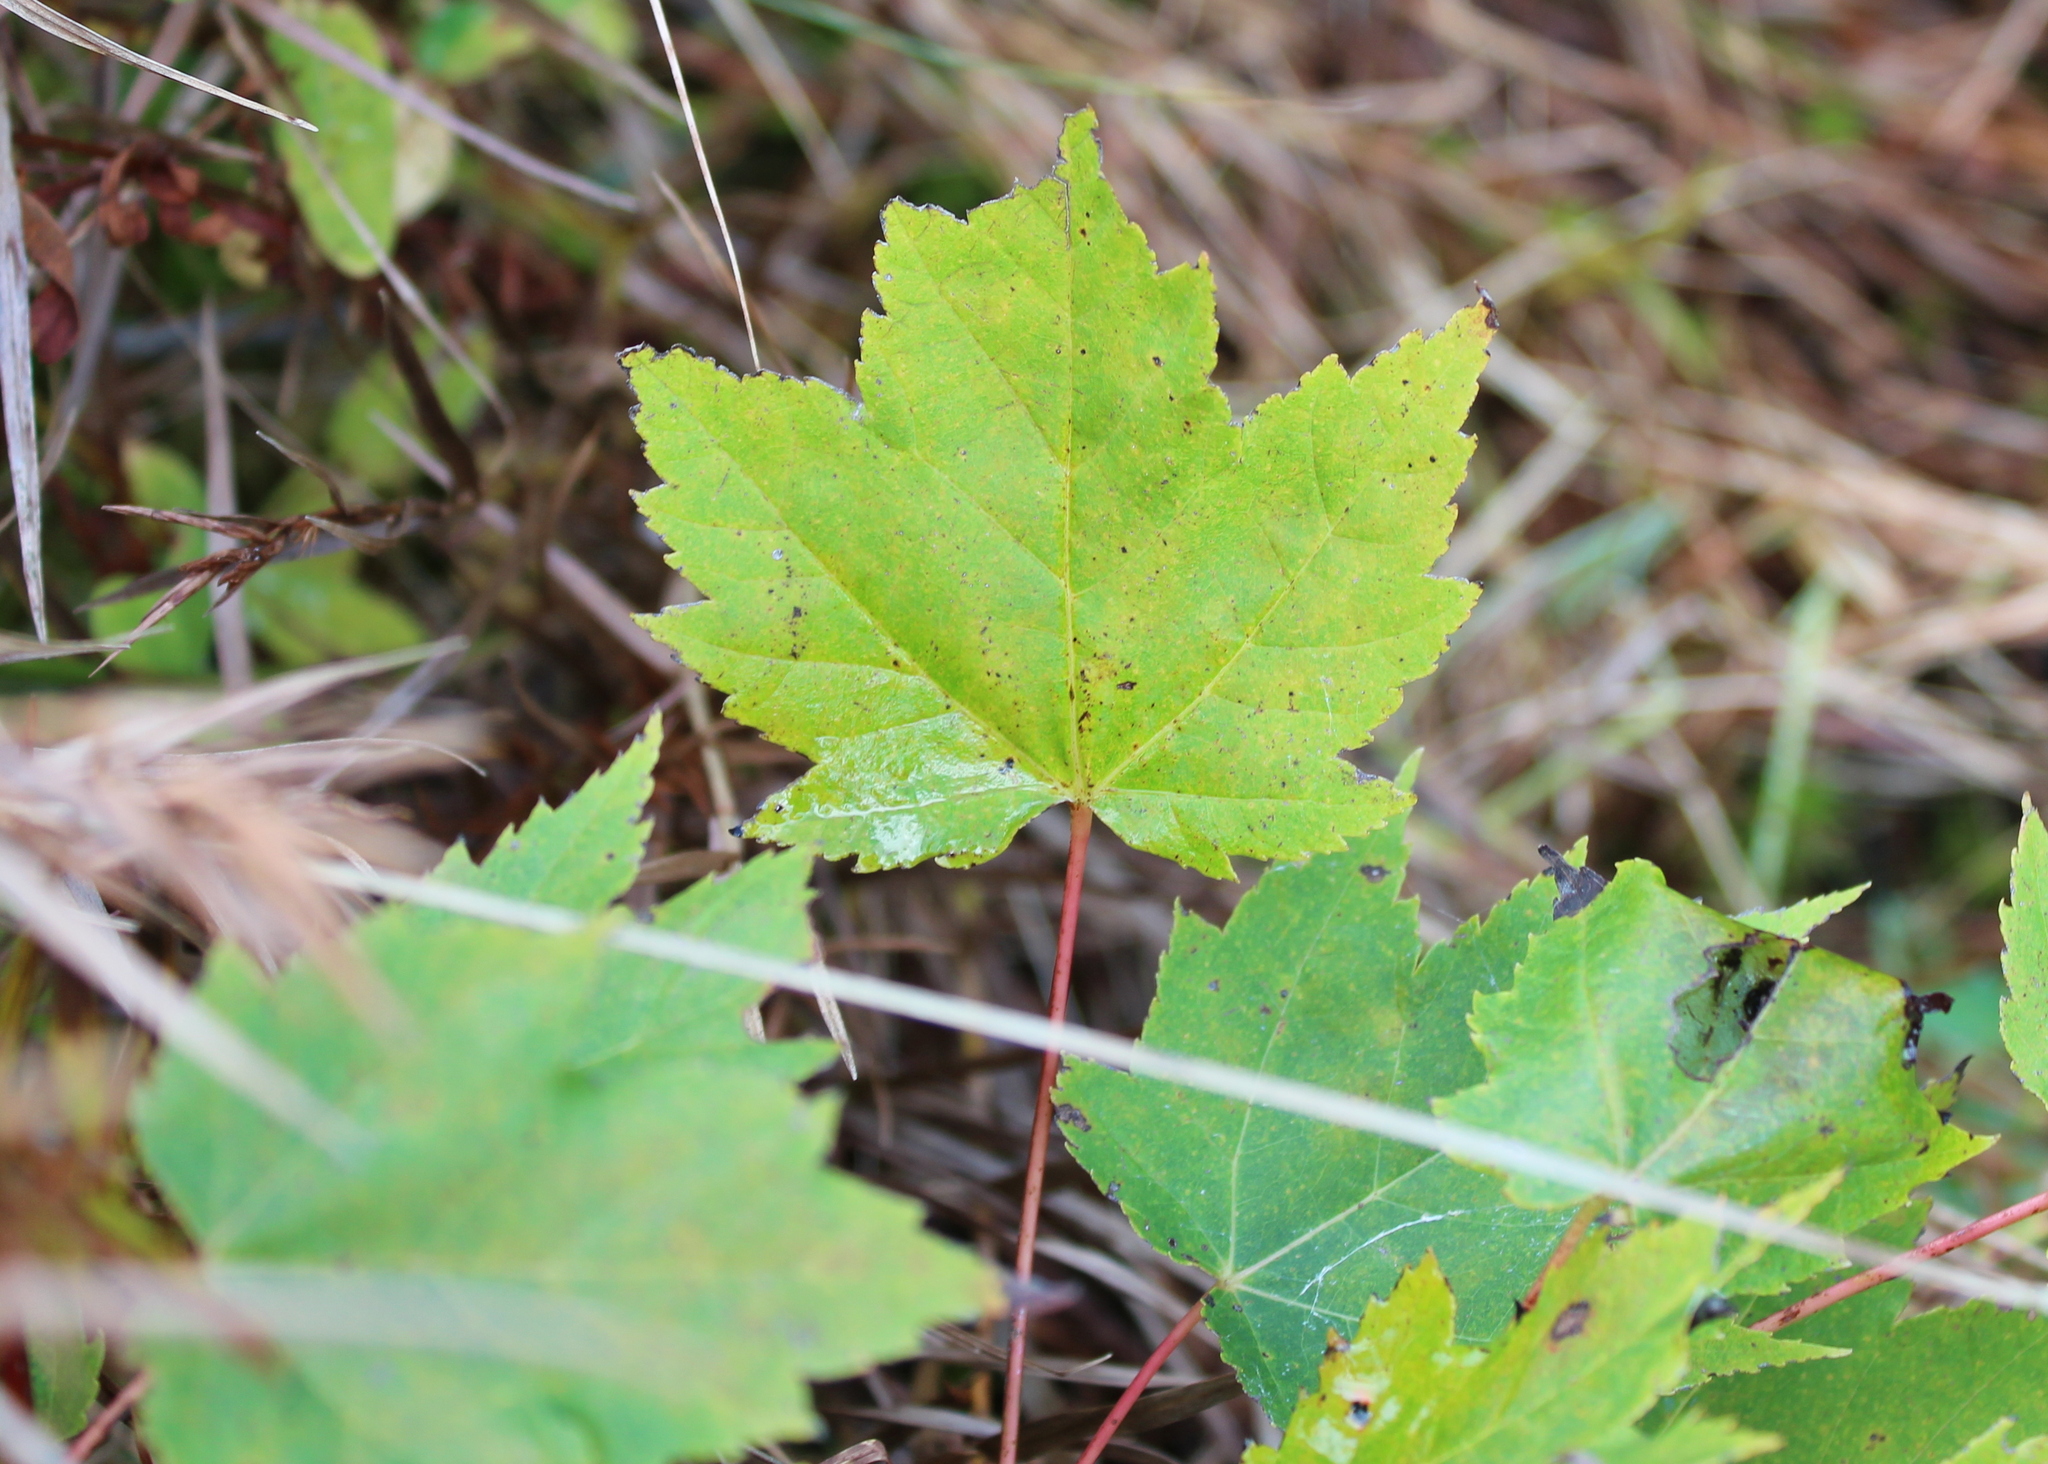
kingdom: Plantae
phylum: Tracheophyta
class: Magnoliopsida
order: Sapindales
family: Sapindaceae
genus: Acer
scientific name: Acer rubrum
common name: Red maple
